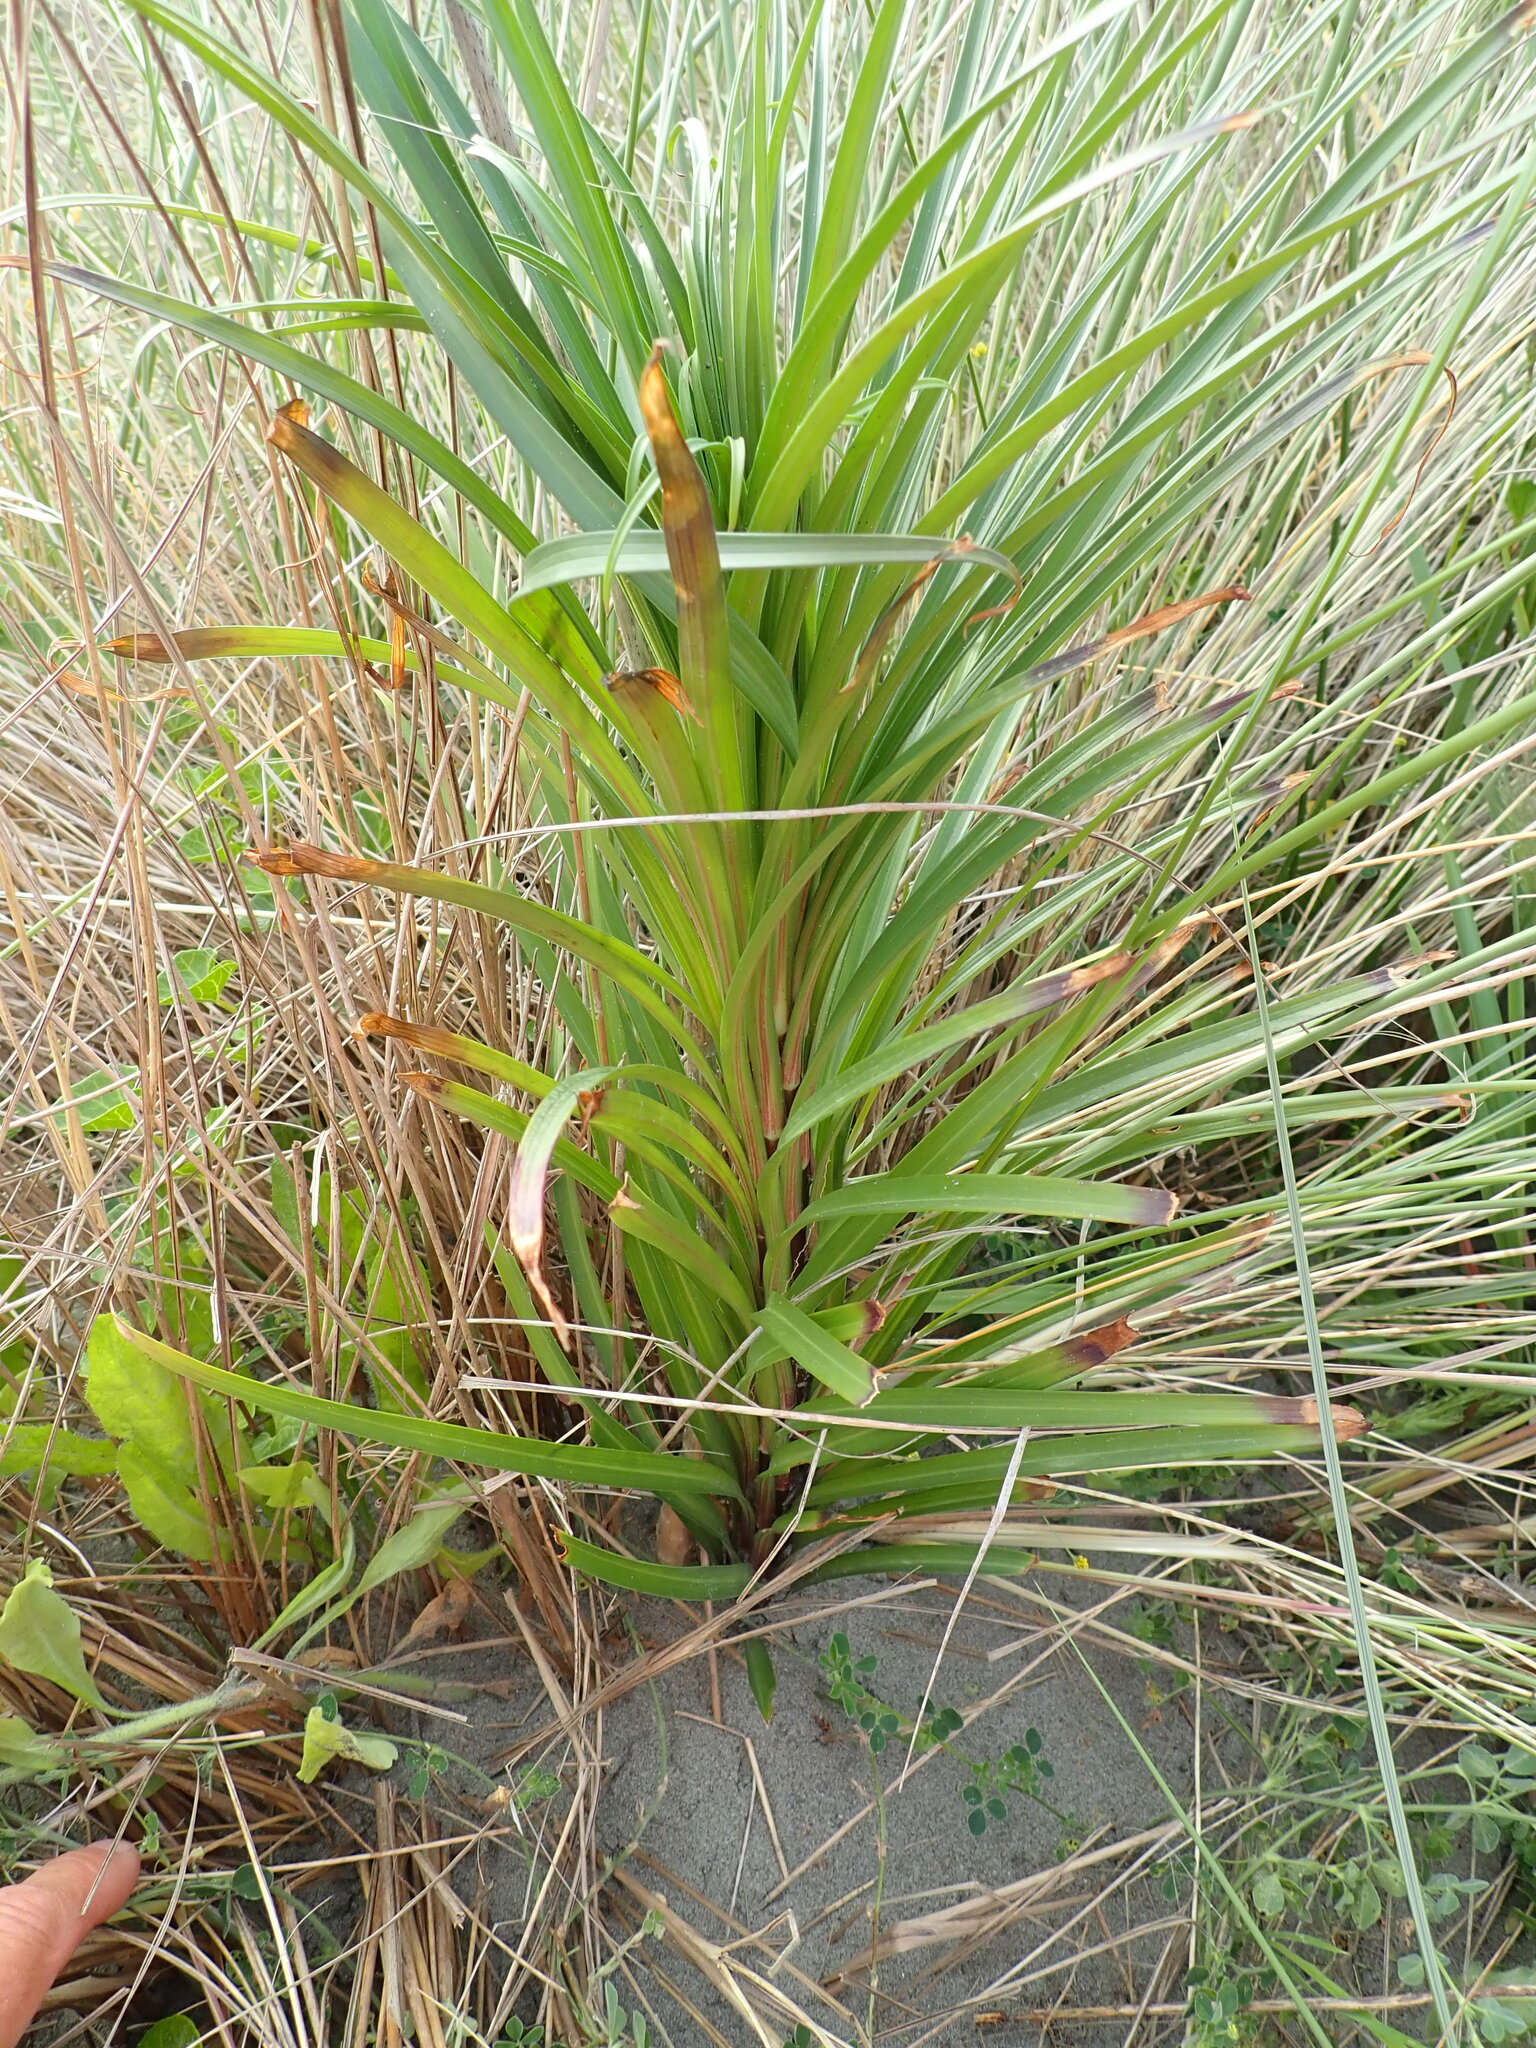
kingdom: Plantae
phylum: Tracheophyta
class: Liliopsida
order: Liliales
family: Liliaceae
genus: Lilium
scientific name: Lilium formosanum
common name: Formosa lily
